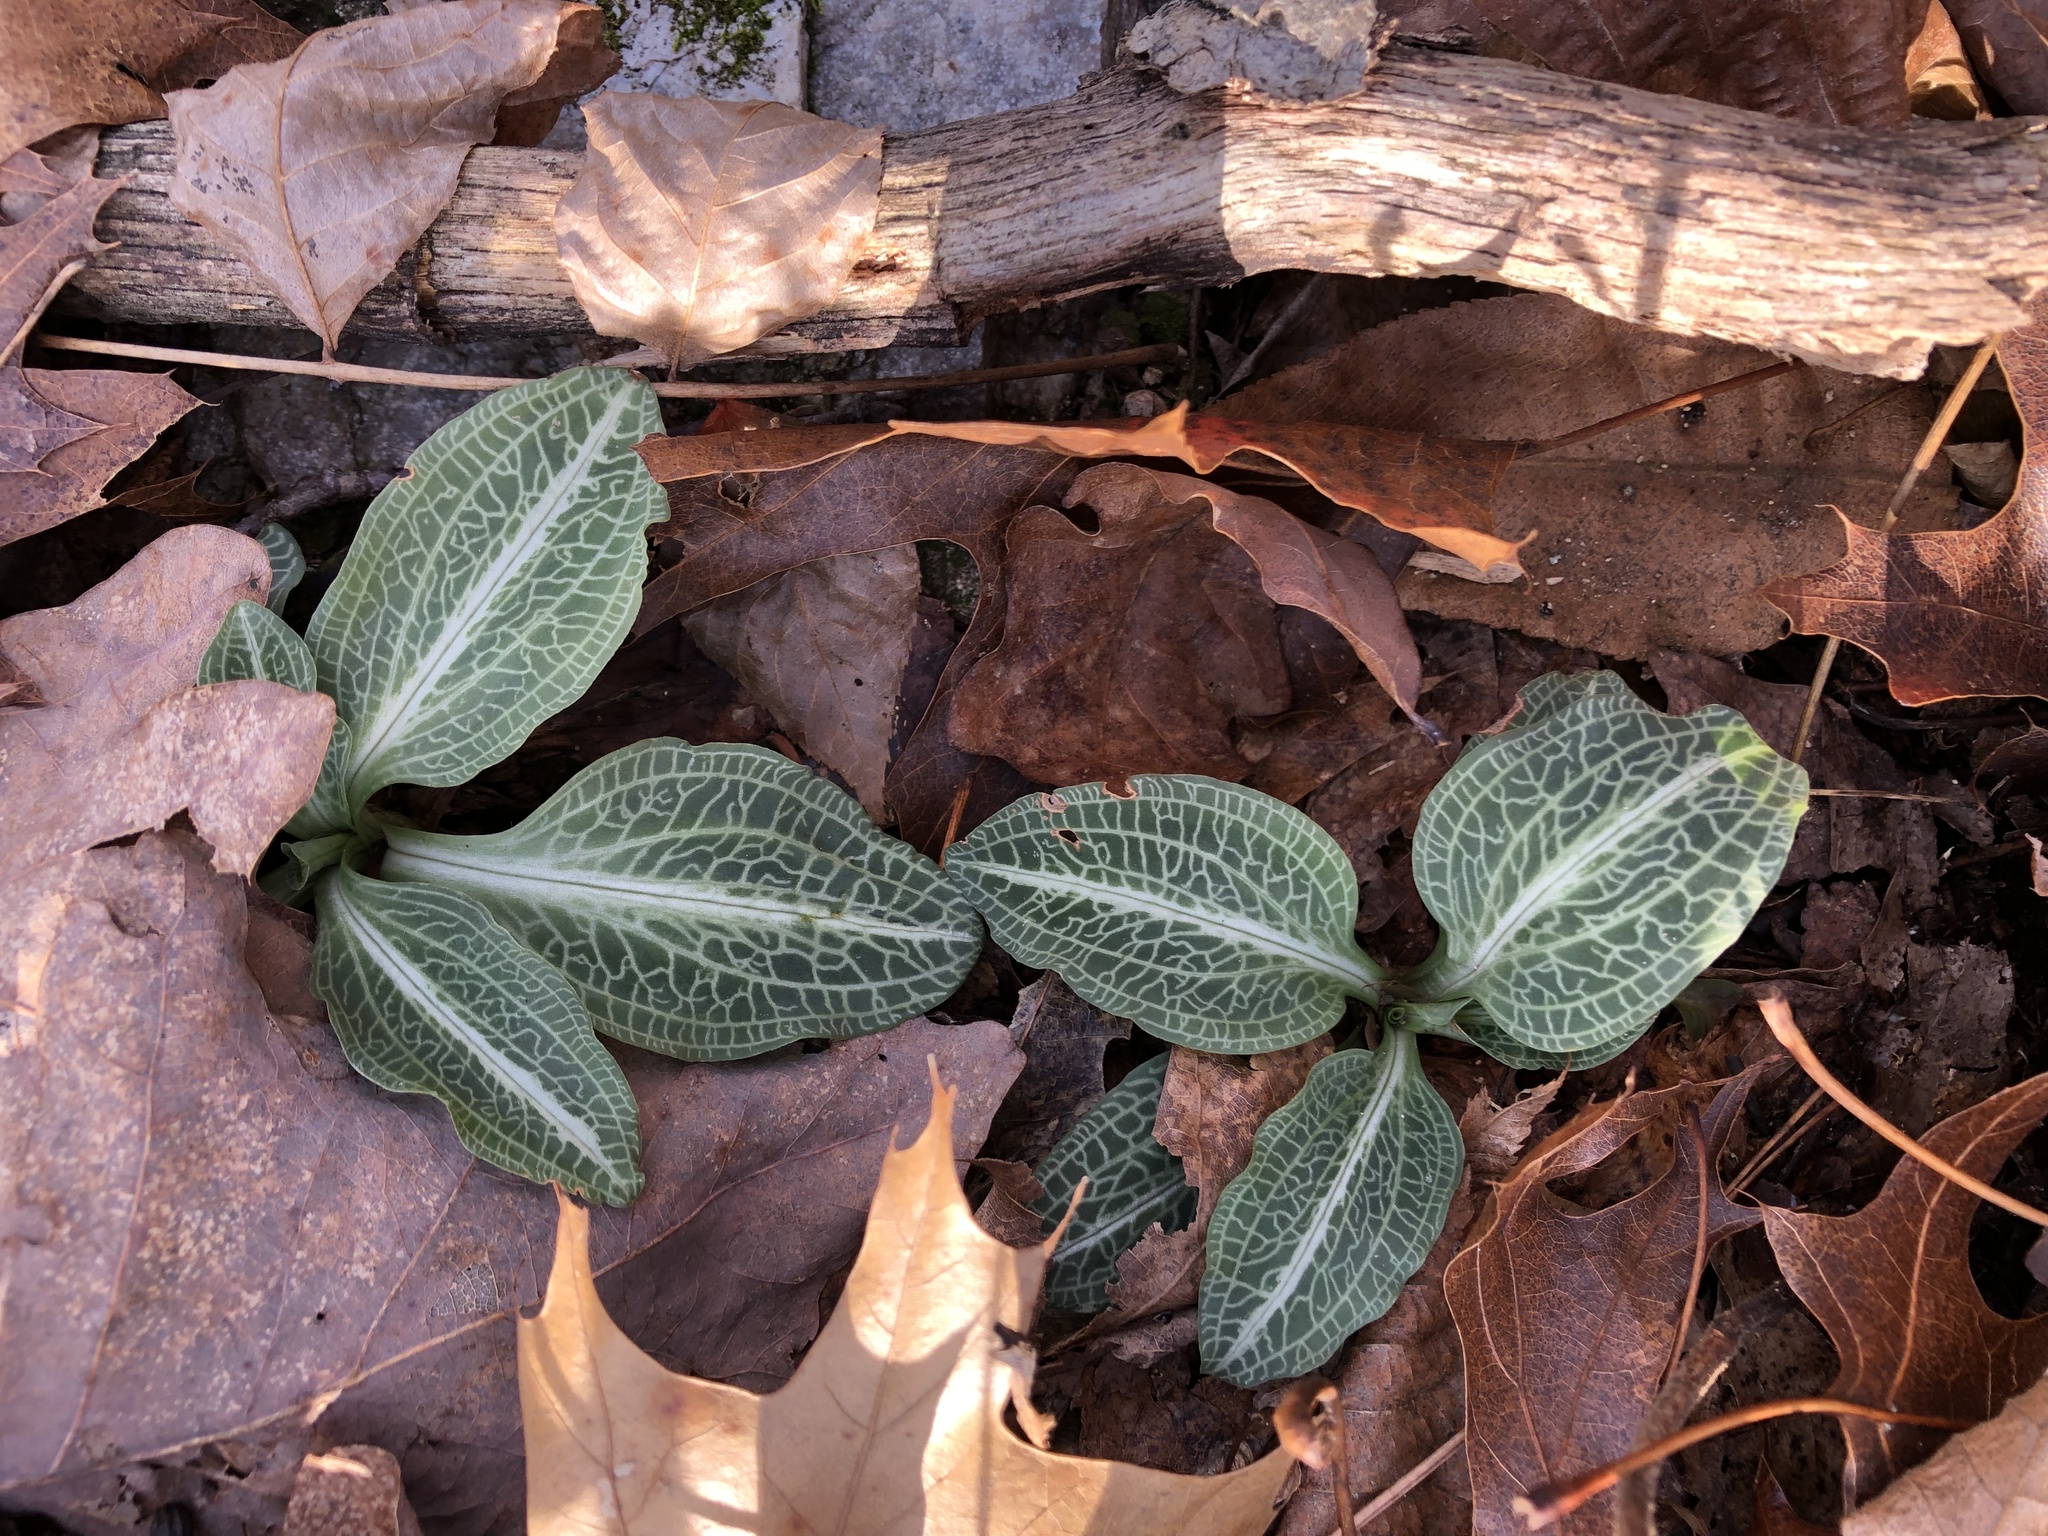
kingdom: Plantae
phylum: Tracheophyta
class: Liliopsida
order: Asparagales
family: Orchidaceae
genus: Goodyera
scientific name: Goodyera pubescens
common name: Downy rattlesnake-plantain
